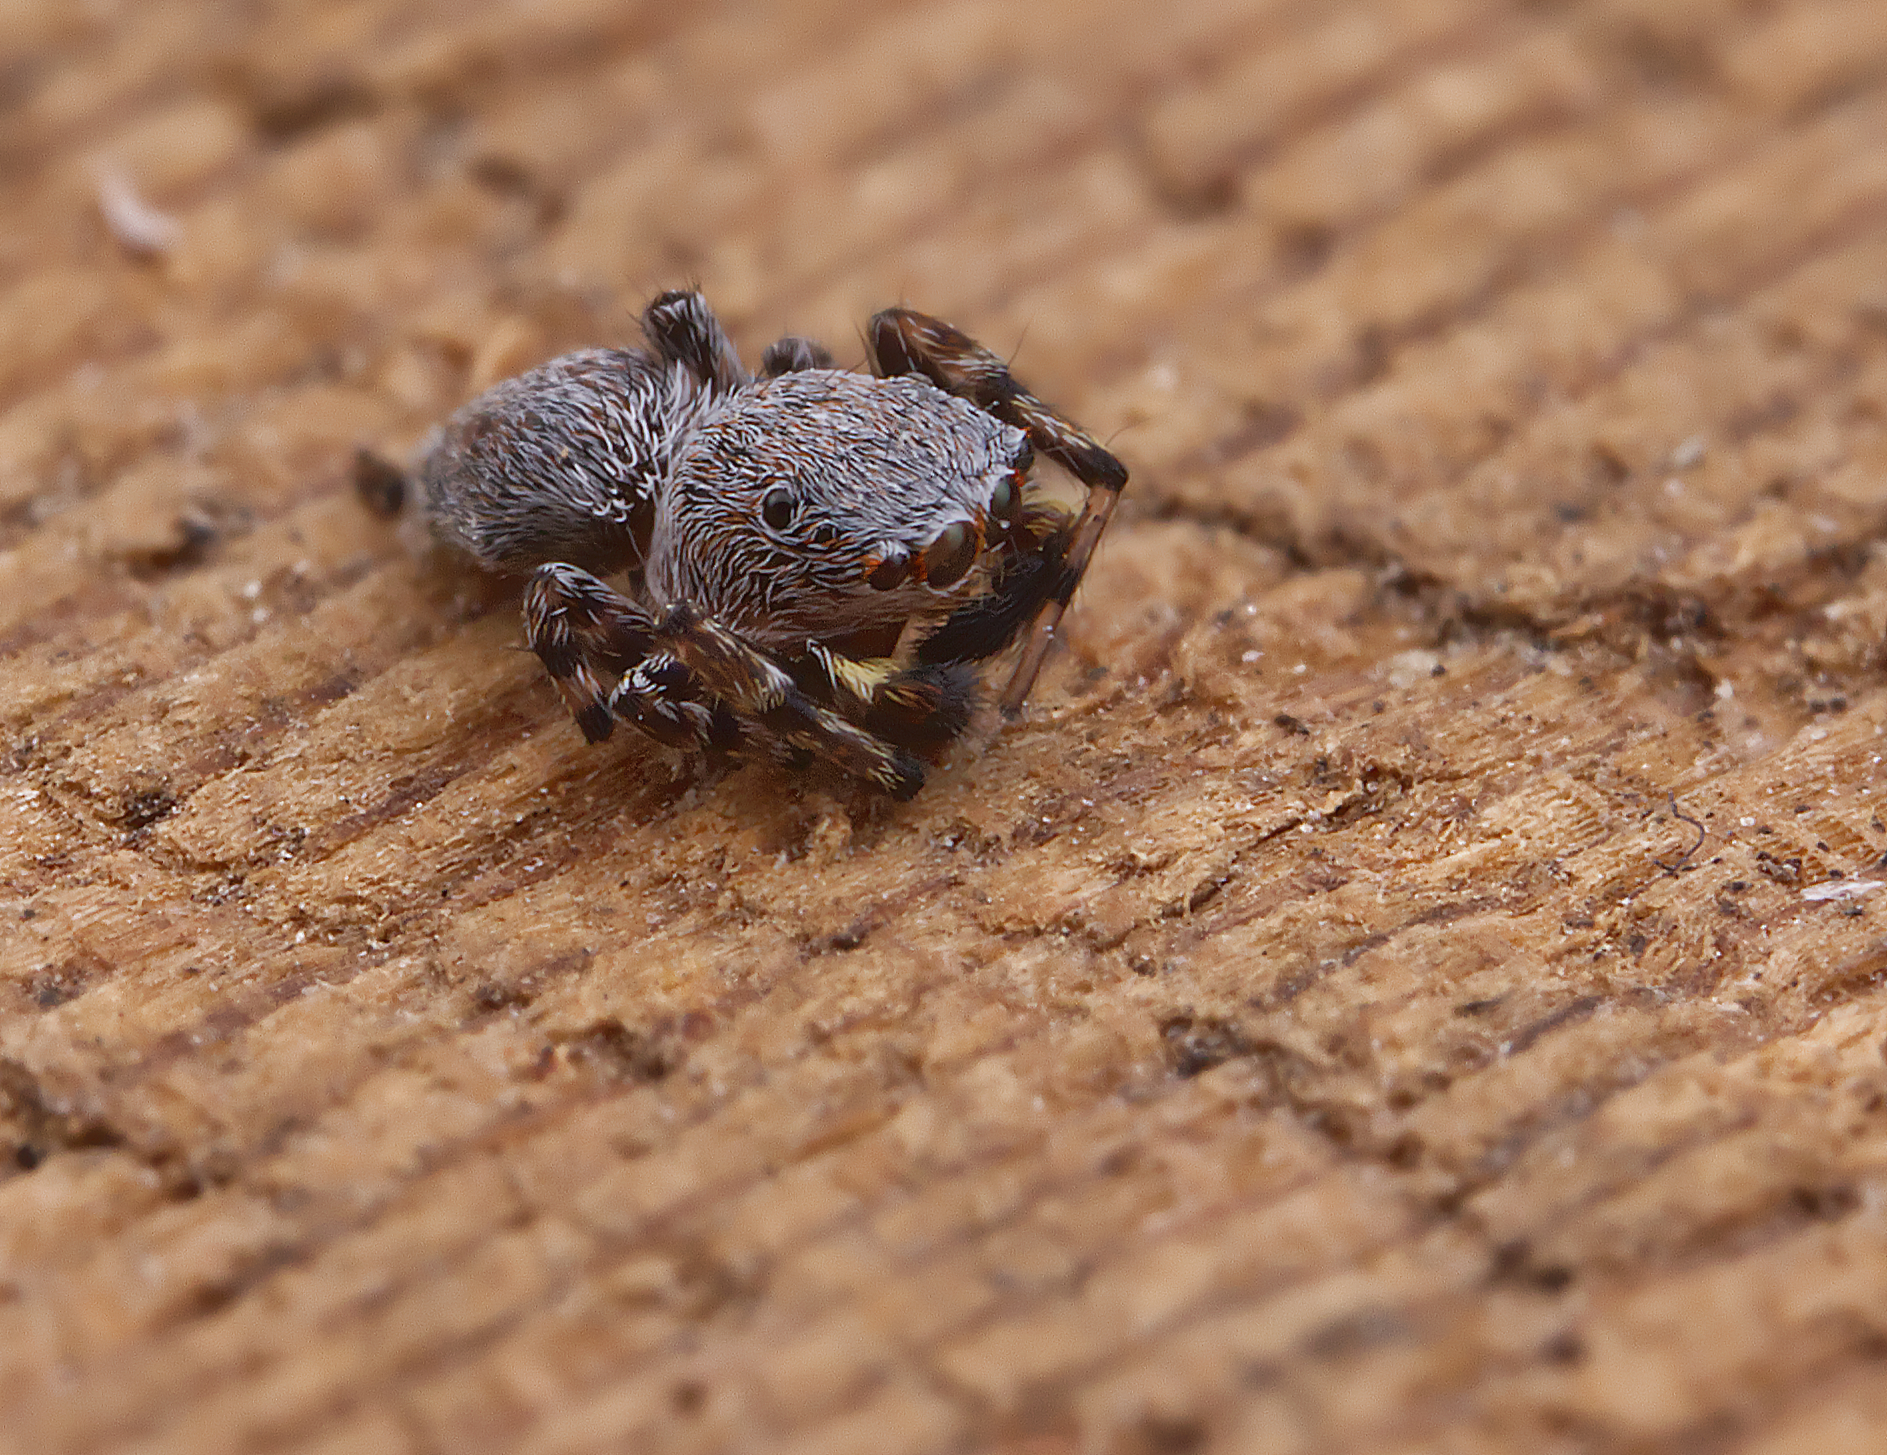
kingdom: Animalia
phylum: Arthropoda
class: Arachnida
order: Araneae
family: Salticidae
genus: Attinella
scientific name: Attinella concolor
